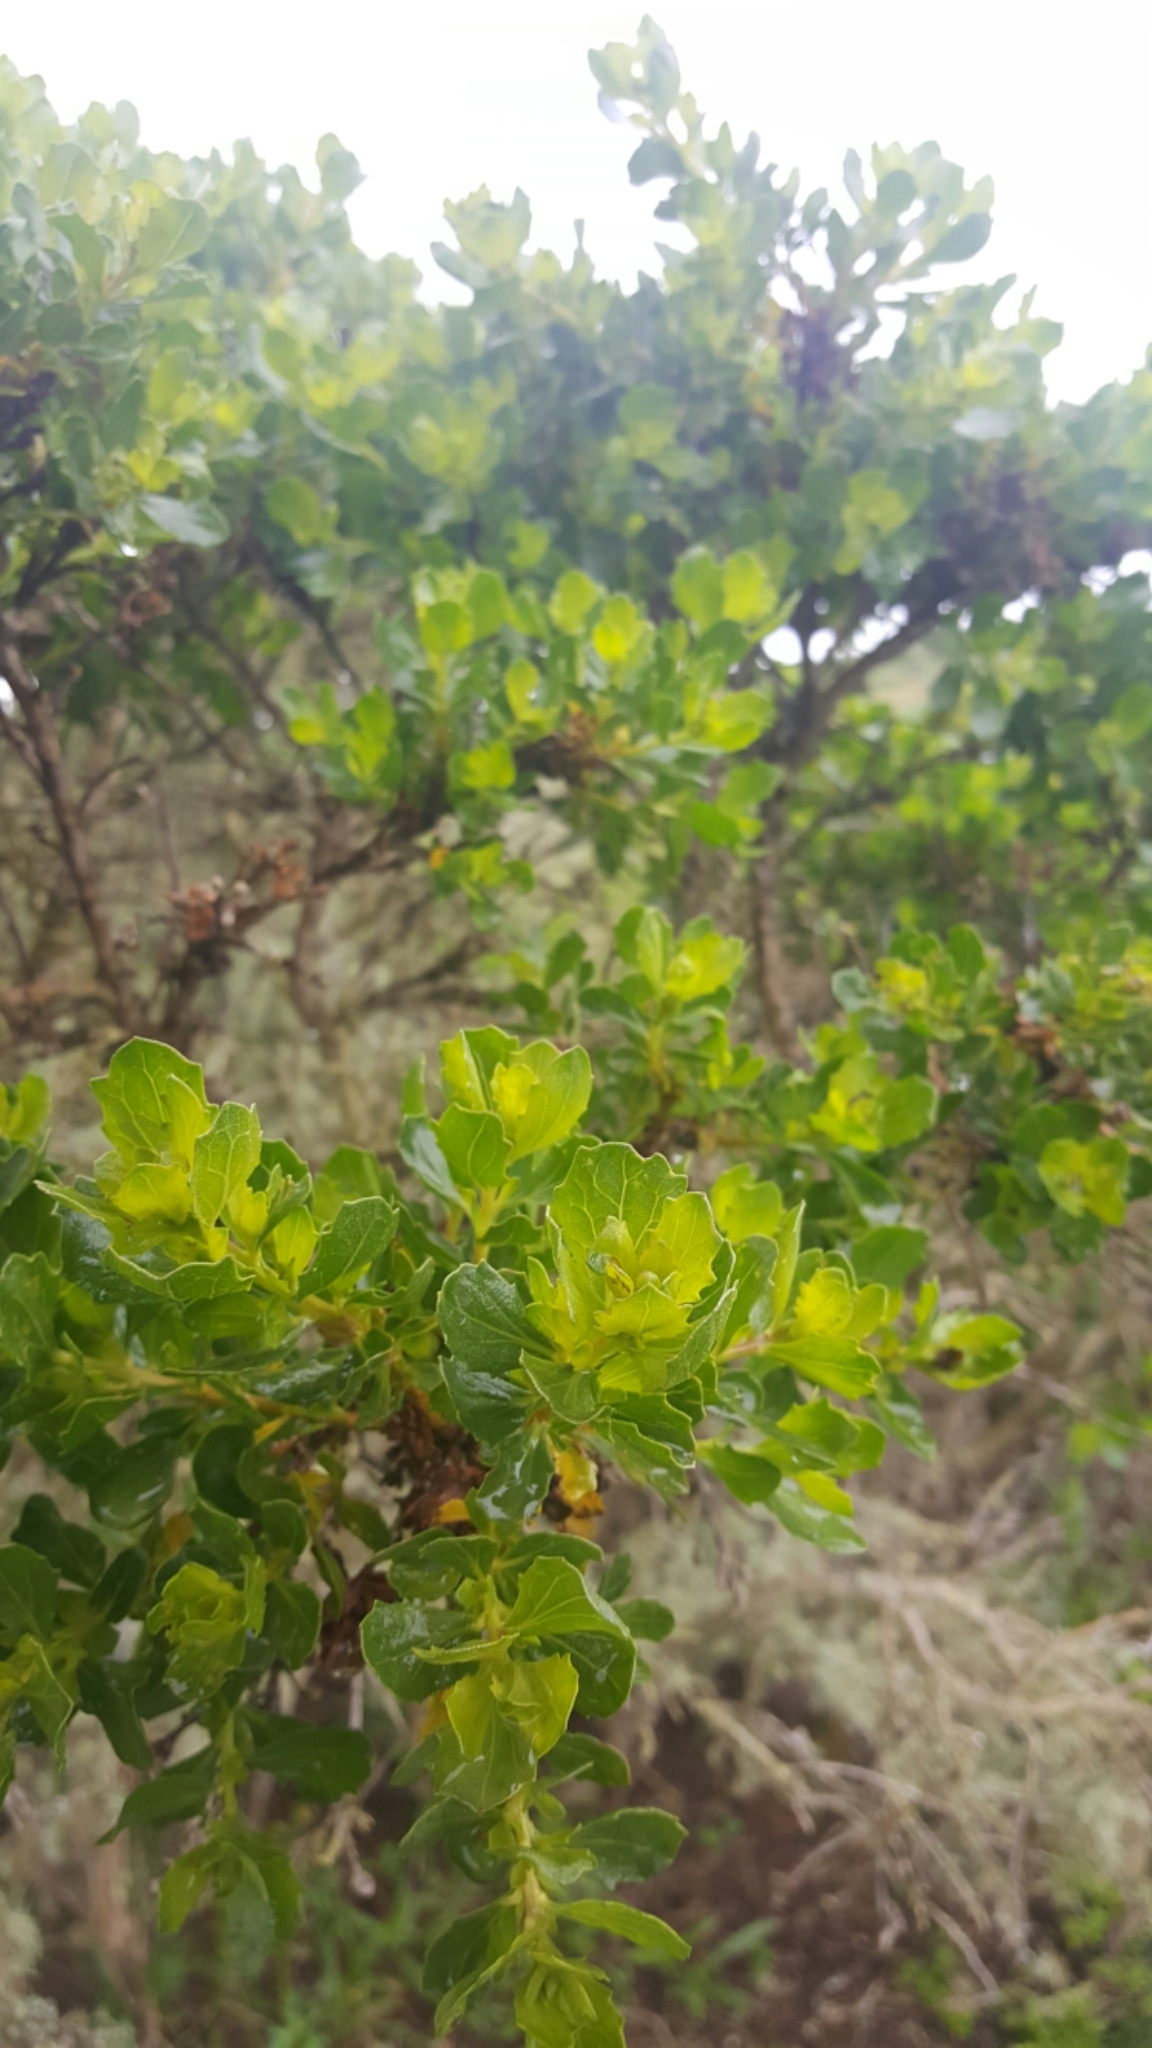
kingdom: Plantae
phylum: Tracheophyta
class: Magnoliopsida
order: Asterales
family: Asteraceae
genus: Baccharis
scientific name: Baccharis pilularis
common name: Coyotebrush
